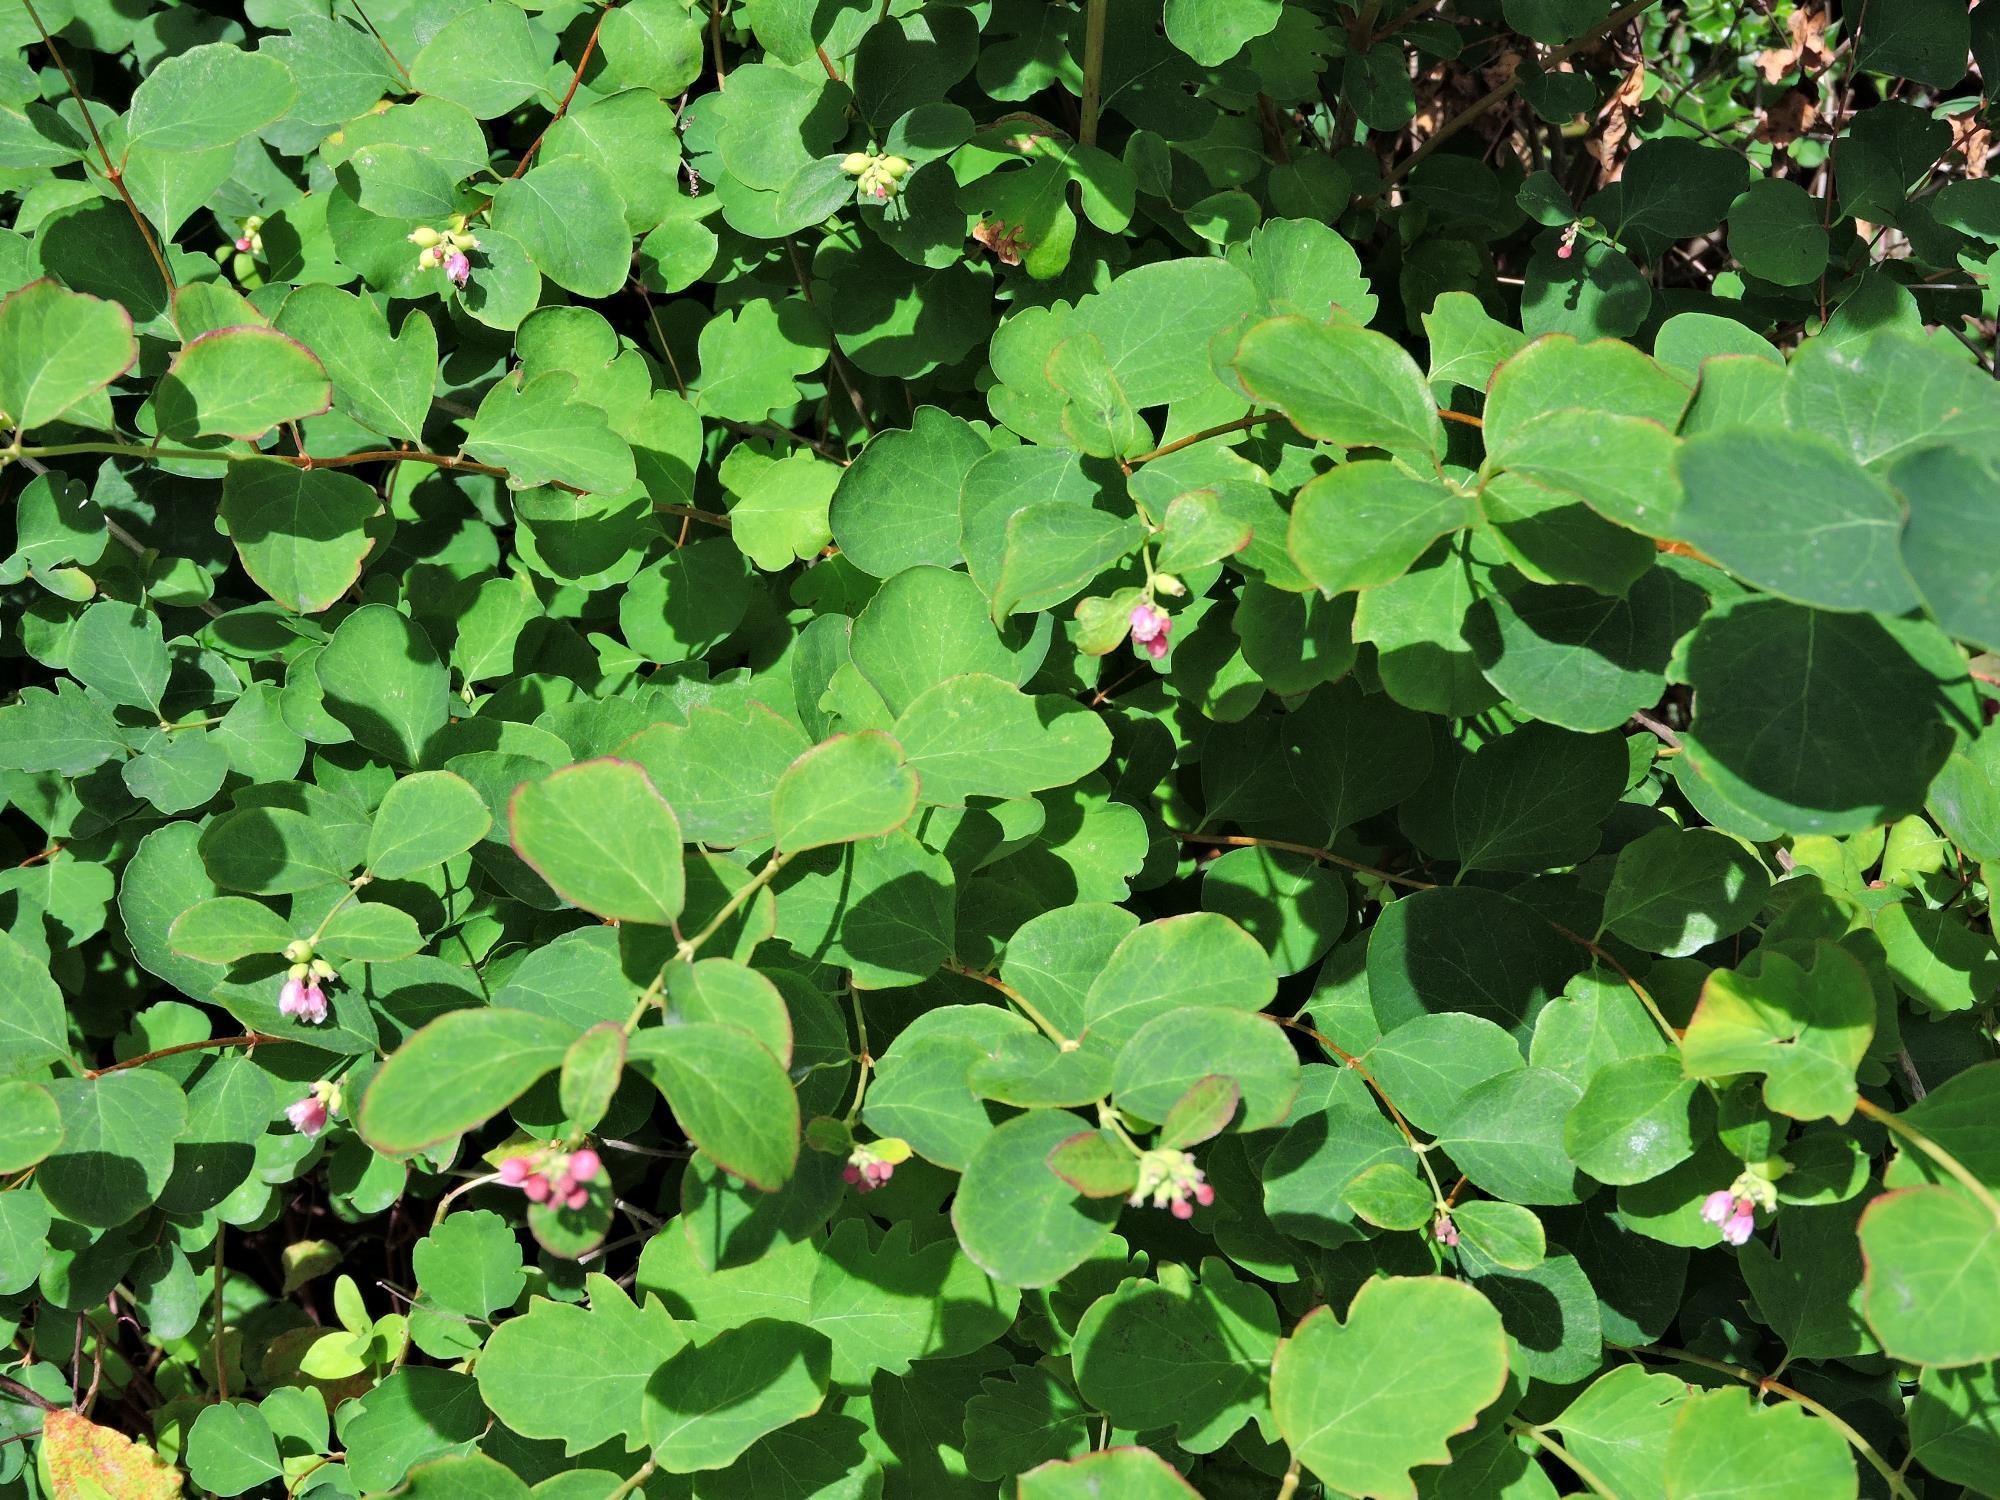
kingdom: Plantae
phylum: Tracheophyta
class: Magnoliopsida
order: Dipsacales
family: Caprifoliaceae
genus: Symphoricarpos
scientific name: Symphoricarpos albus
